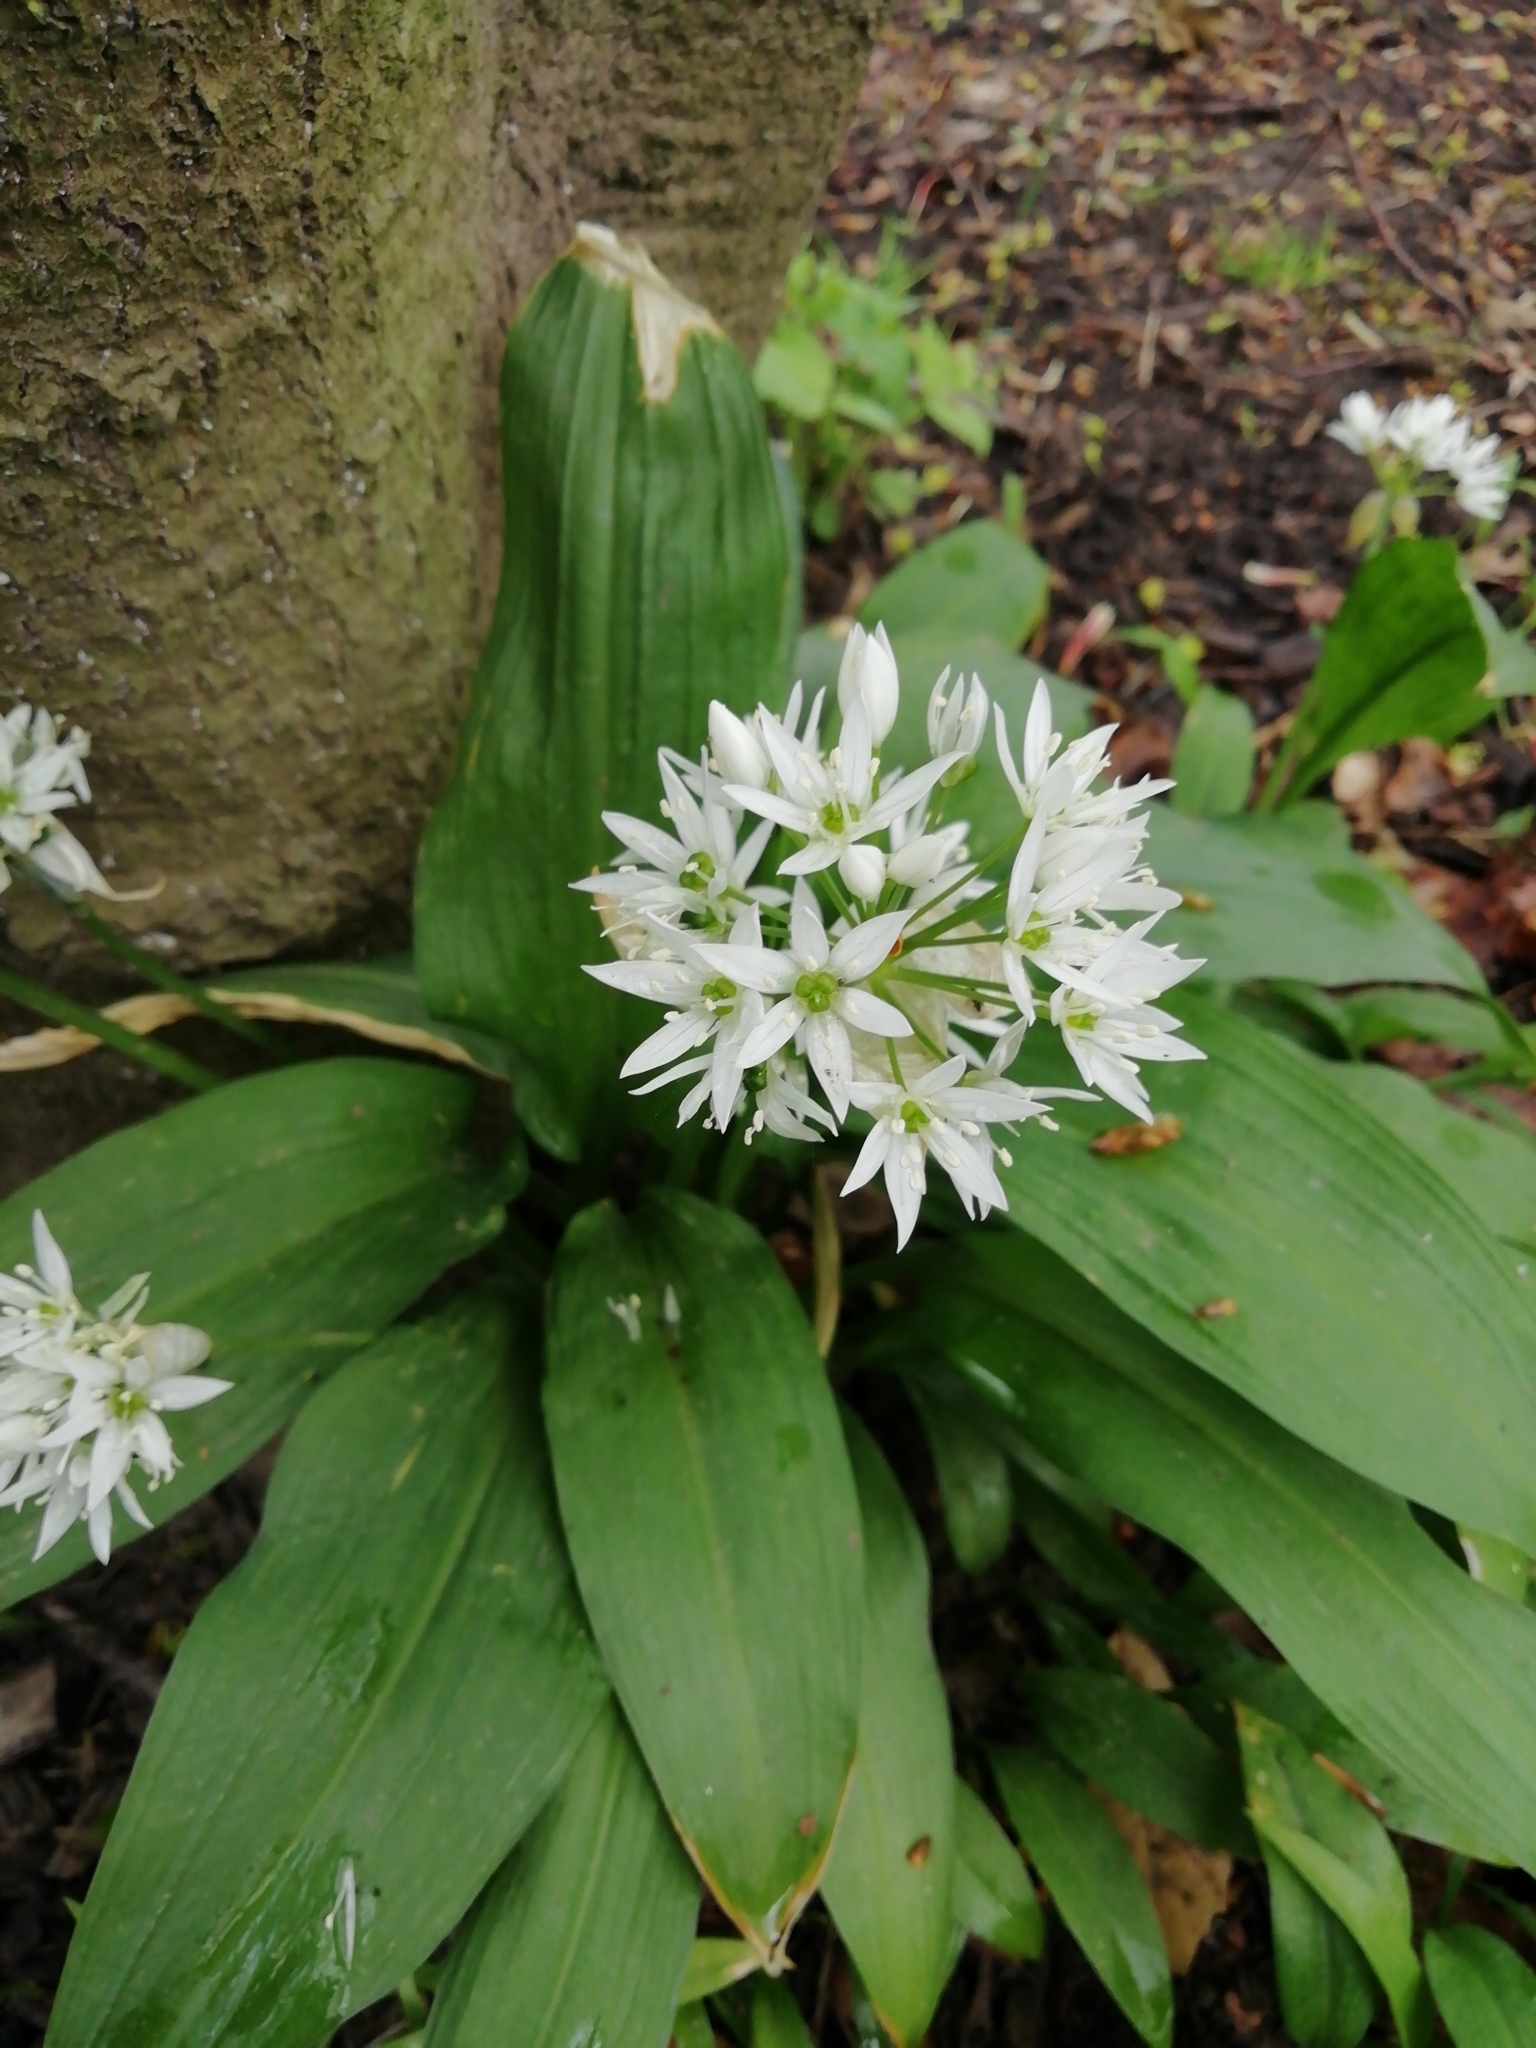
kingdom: Plantae
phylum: Tracheophyta
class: Liliopsida
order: Asparagales
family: Amaryllidaceae
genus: Allium
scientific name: Allium ursinum
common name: Ramsons
